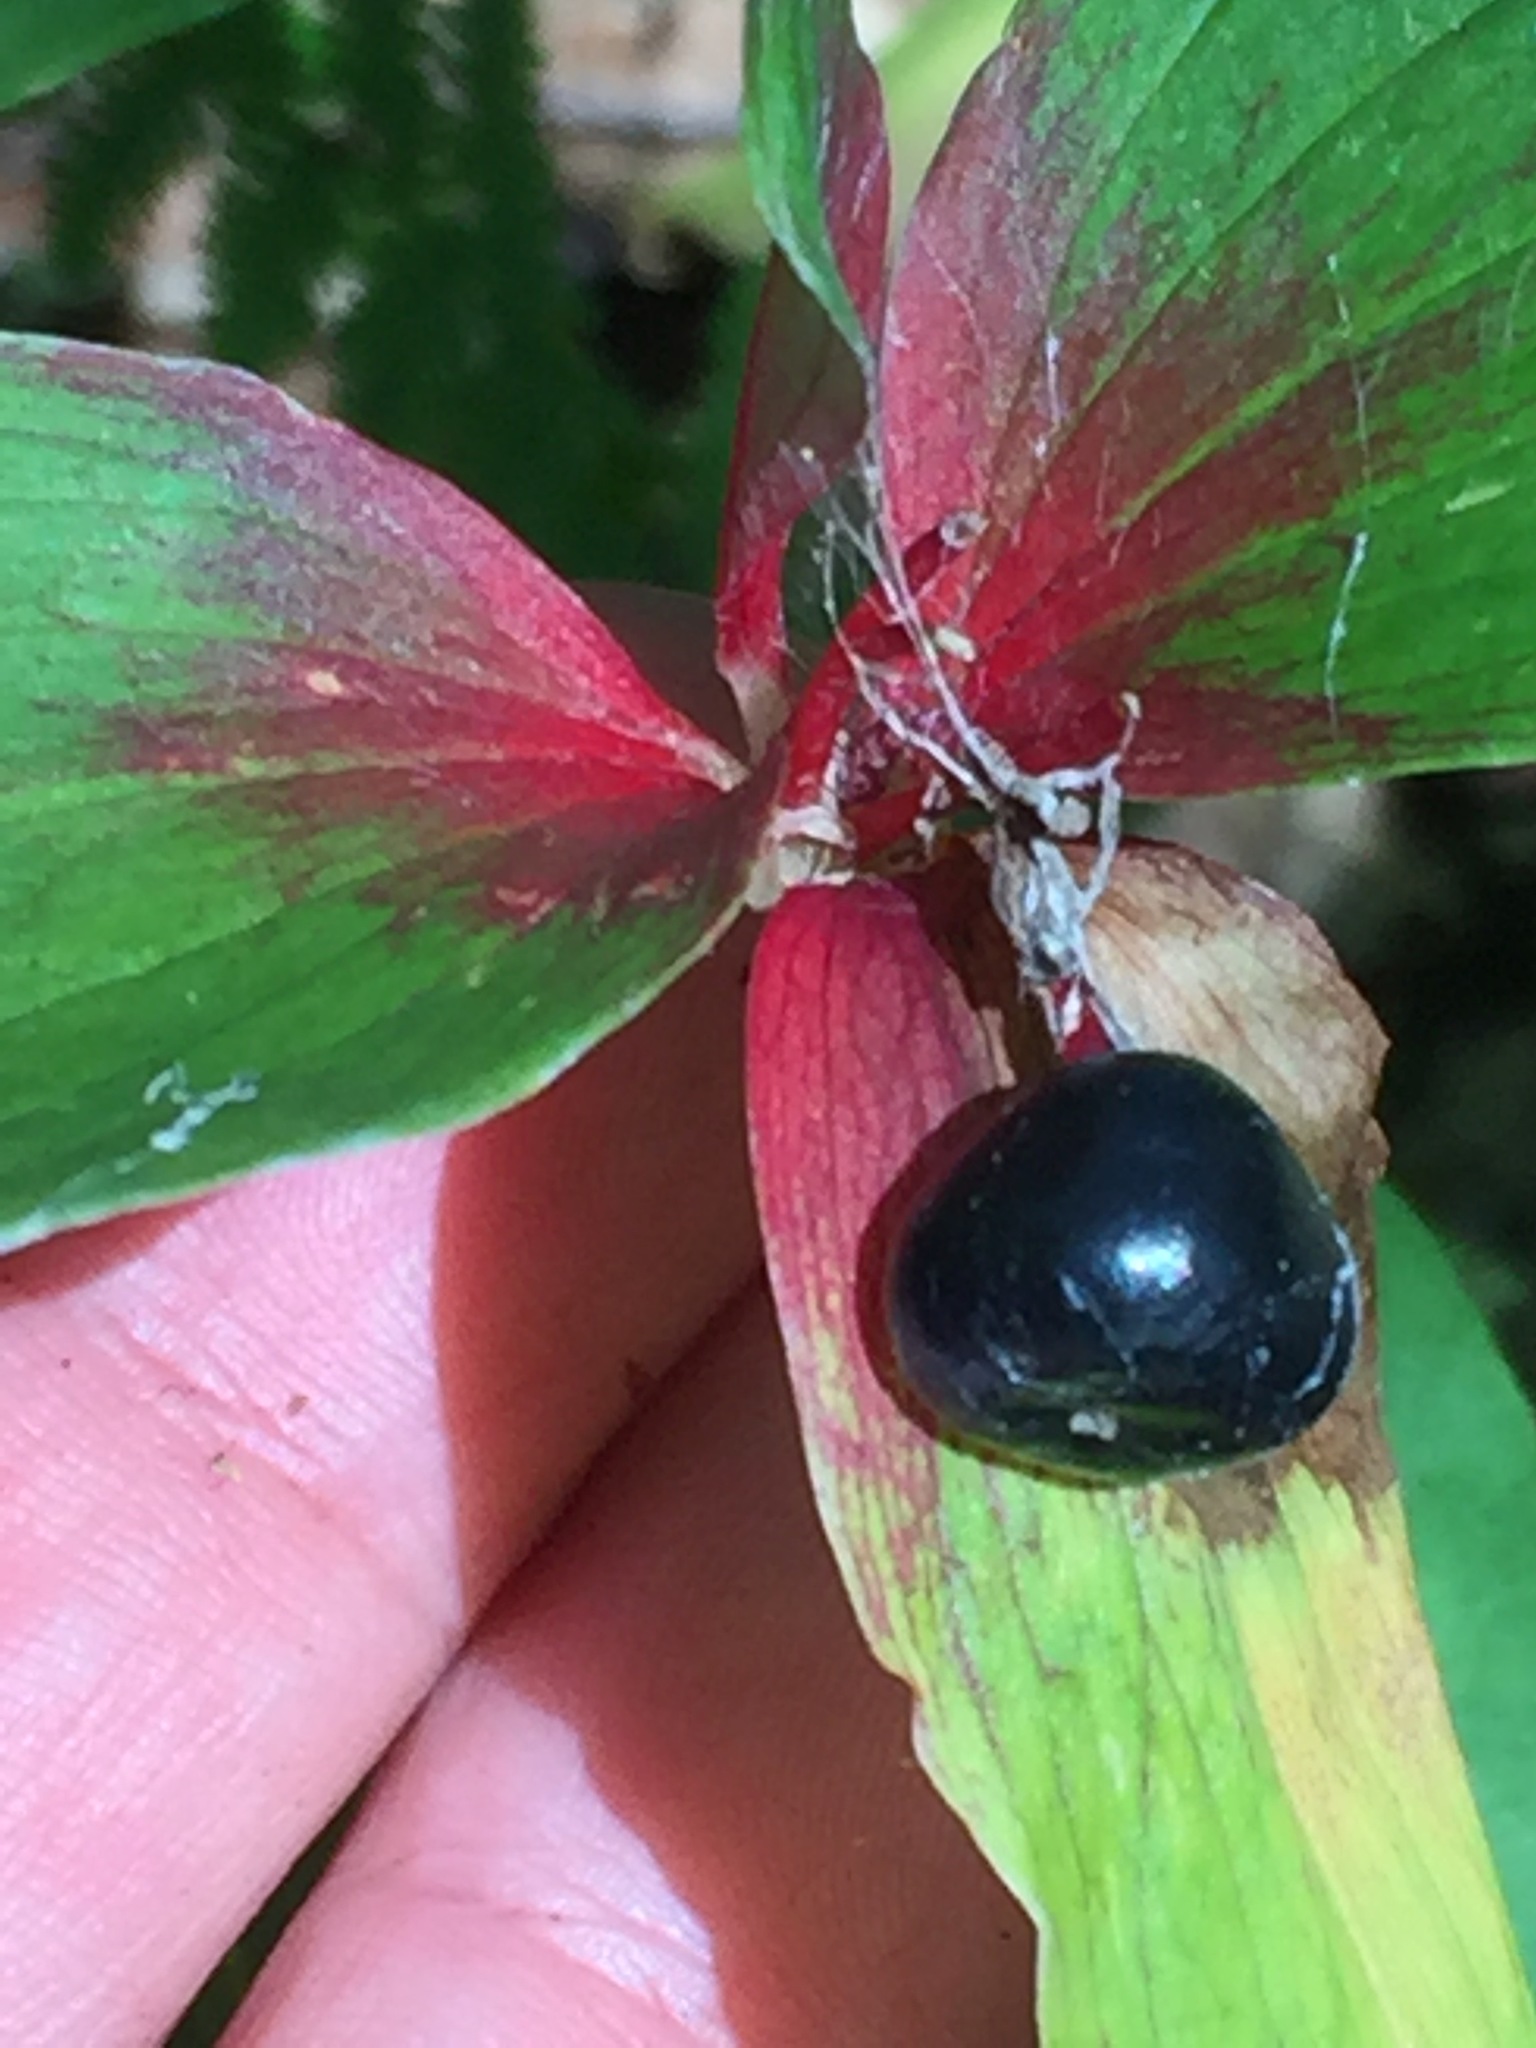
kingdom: Plantae
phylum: Tracheophyta
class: Liliopsida
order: Liliales
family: Liliaceae
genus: Medeola
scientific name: Medeola virginiana
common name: Indian cucumber-root
